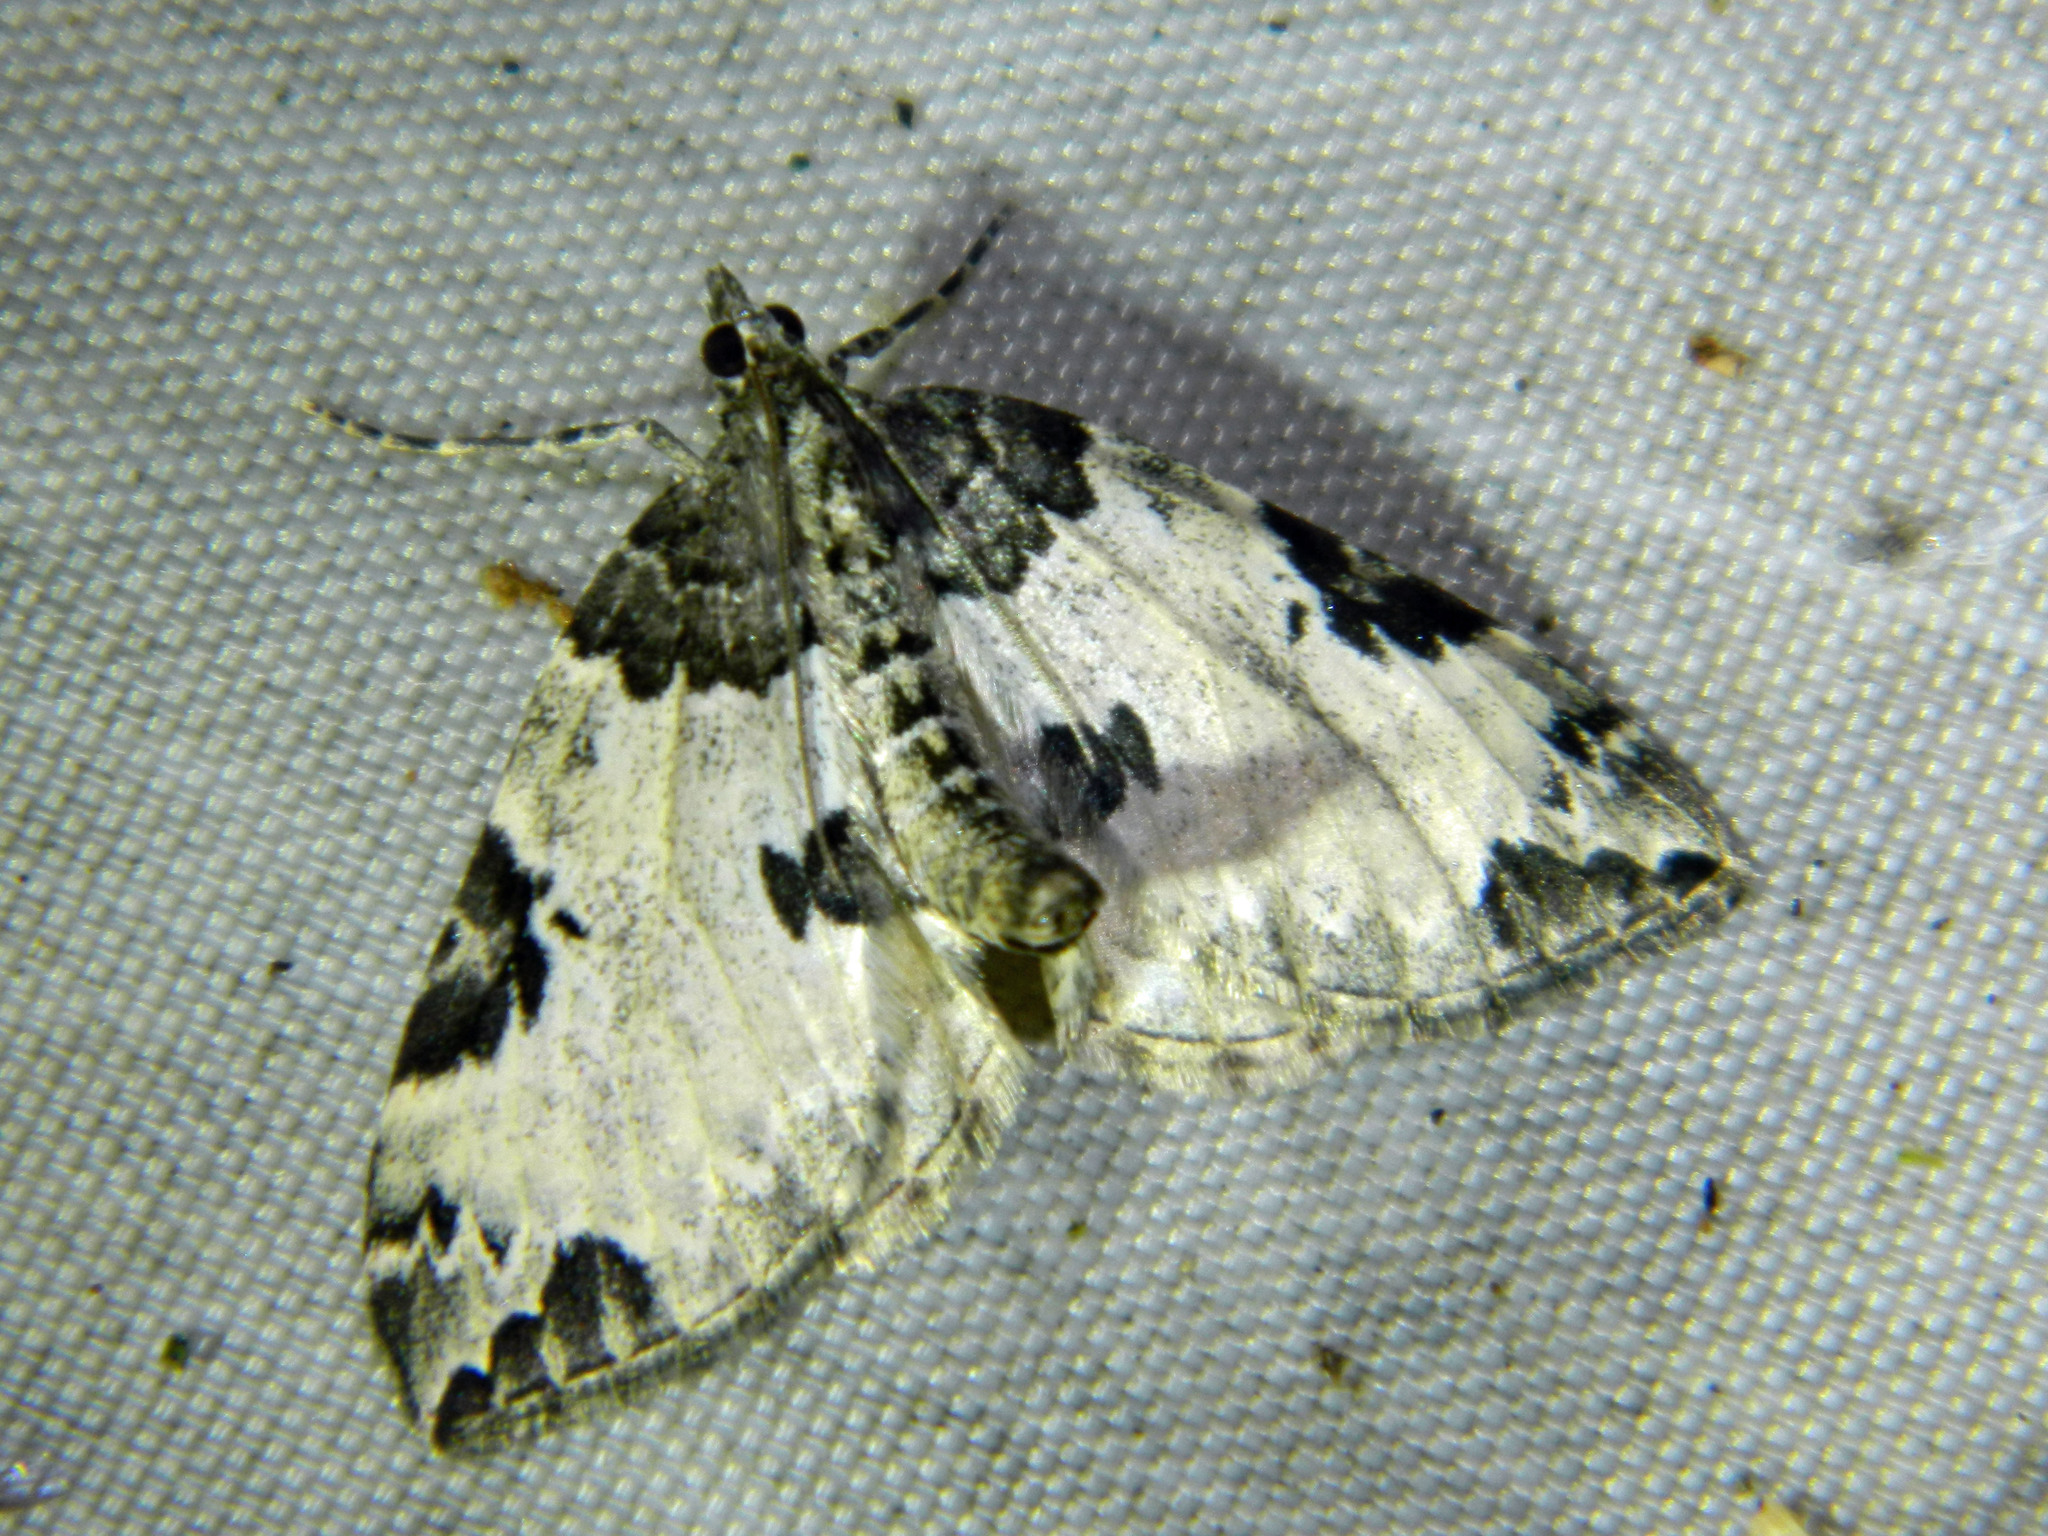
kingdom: Animalia
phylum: Arthropoda
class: Insecta
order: Lepidoptera
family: Geometridae
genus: Eulithis
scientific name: Eulithis explanata
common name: White eulithis
